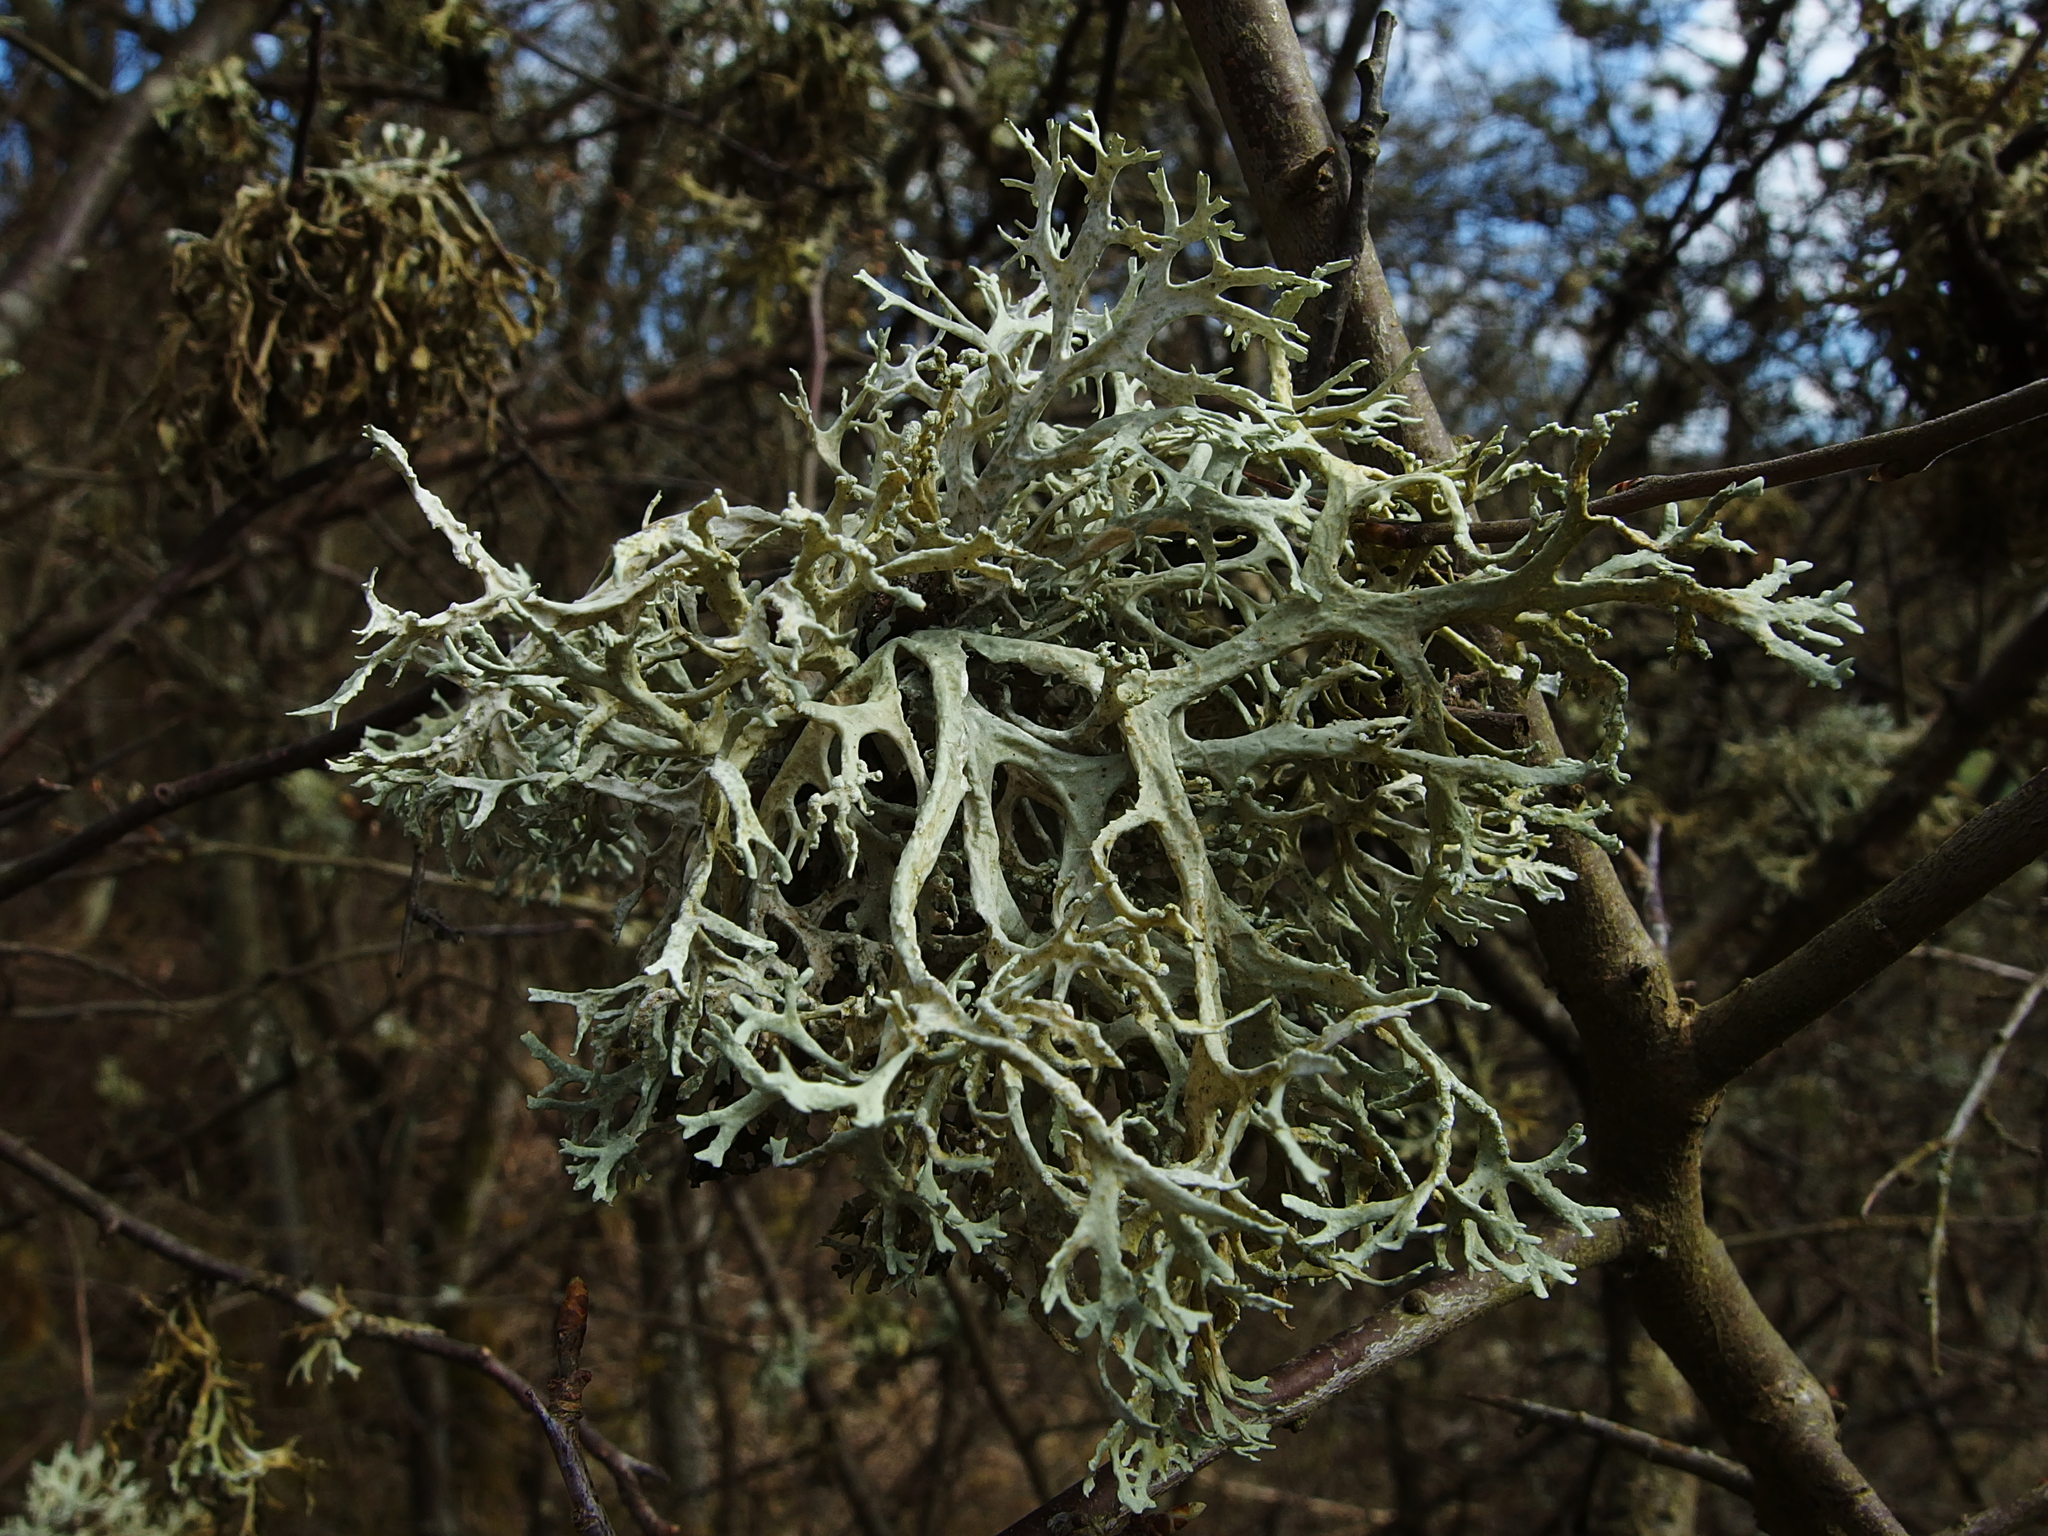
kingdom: Fungi
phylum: Ascomycota
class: Lecanoromycetes
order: Lecanorales
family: Parmeliaceae
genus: Evernia
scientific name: Evernia prunastri
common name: Oak moss
